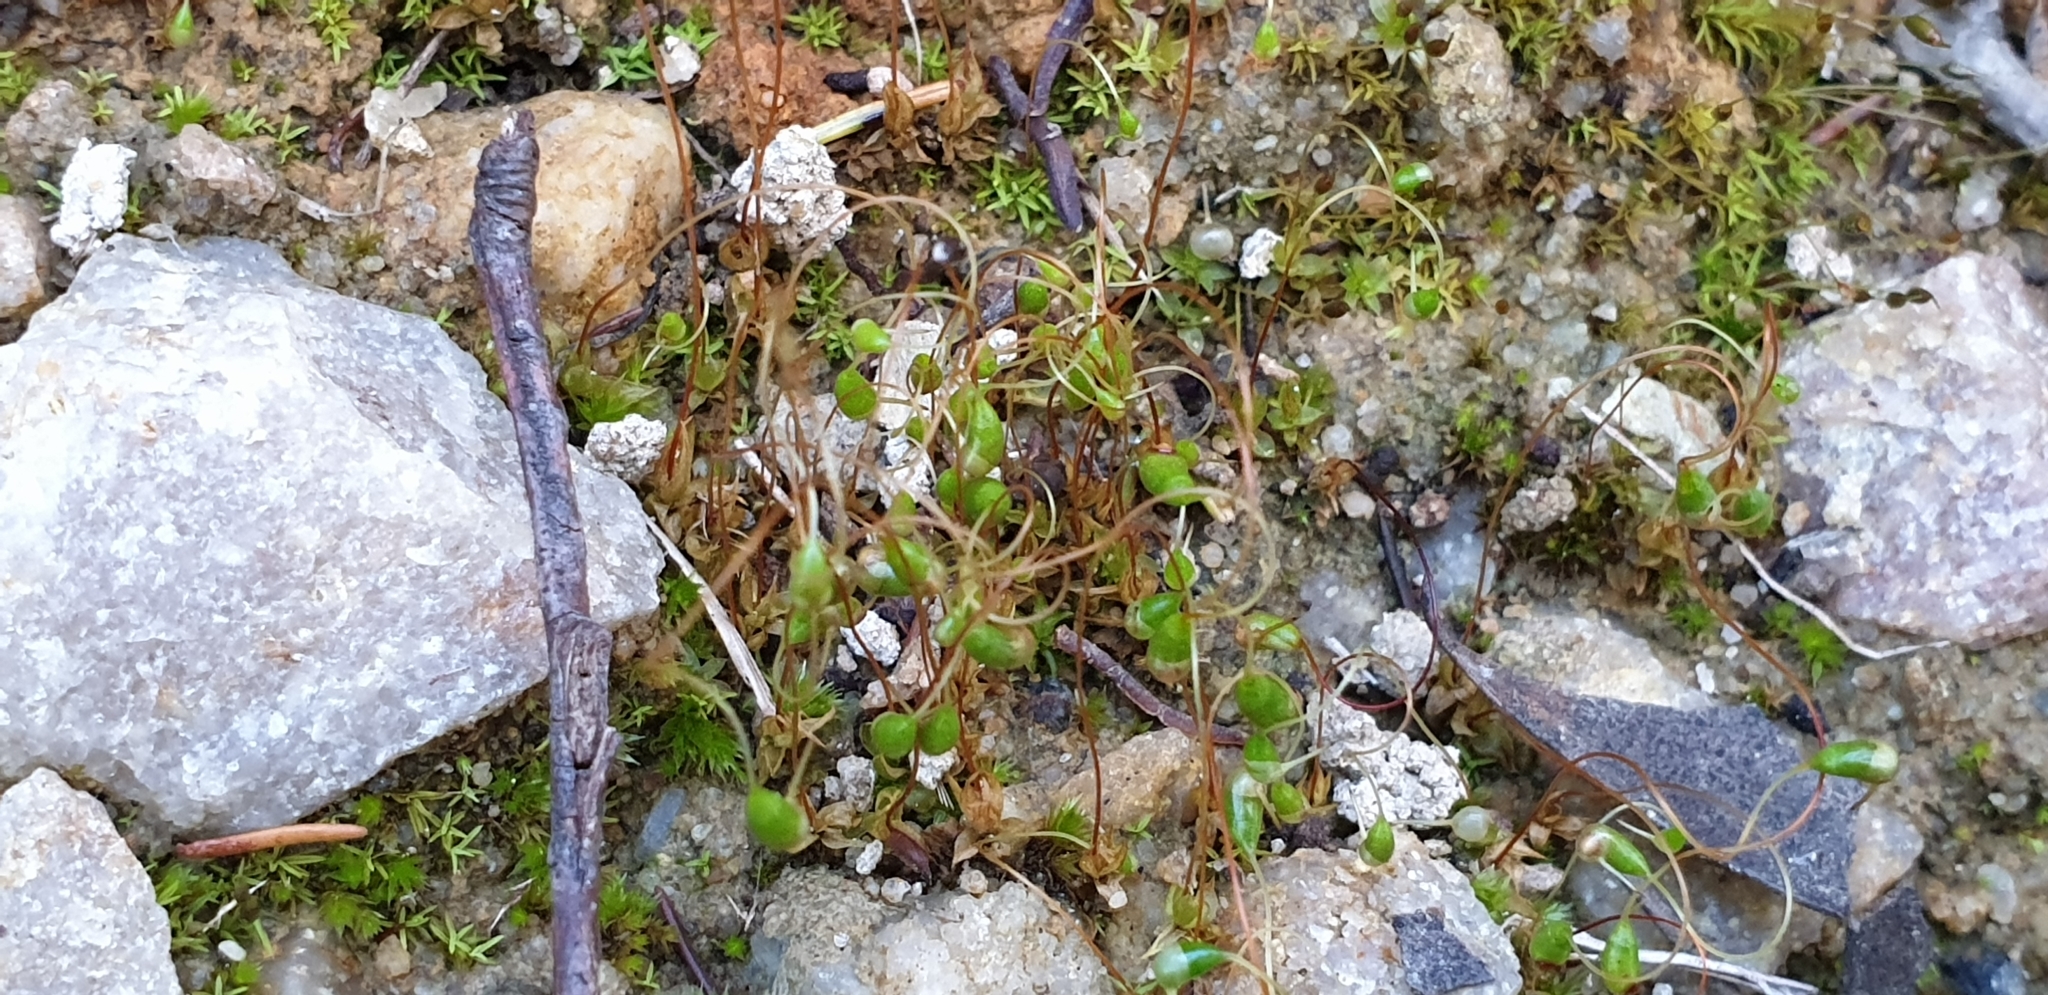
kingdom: Plantae
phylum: Bryophyta
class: Bryopsida
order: Funariales
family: Funariaceae
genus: Funaria
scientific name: Funaria hygrometrica
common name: Common cord moss
